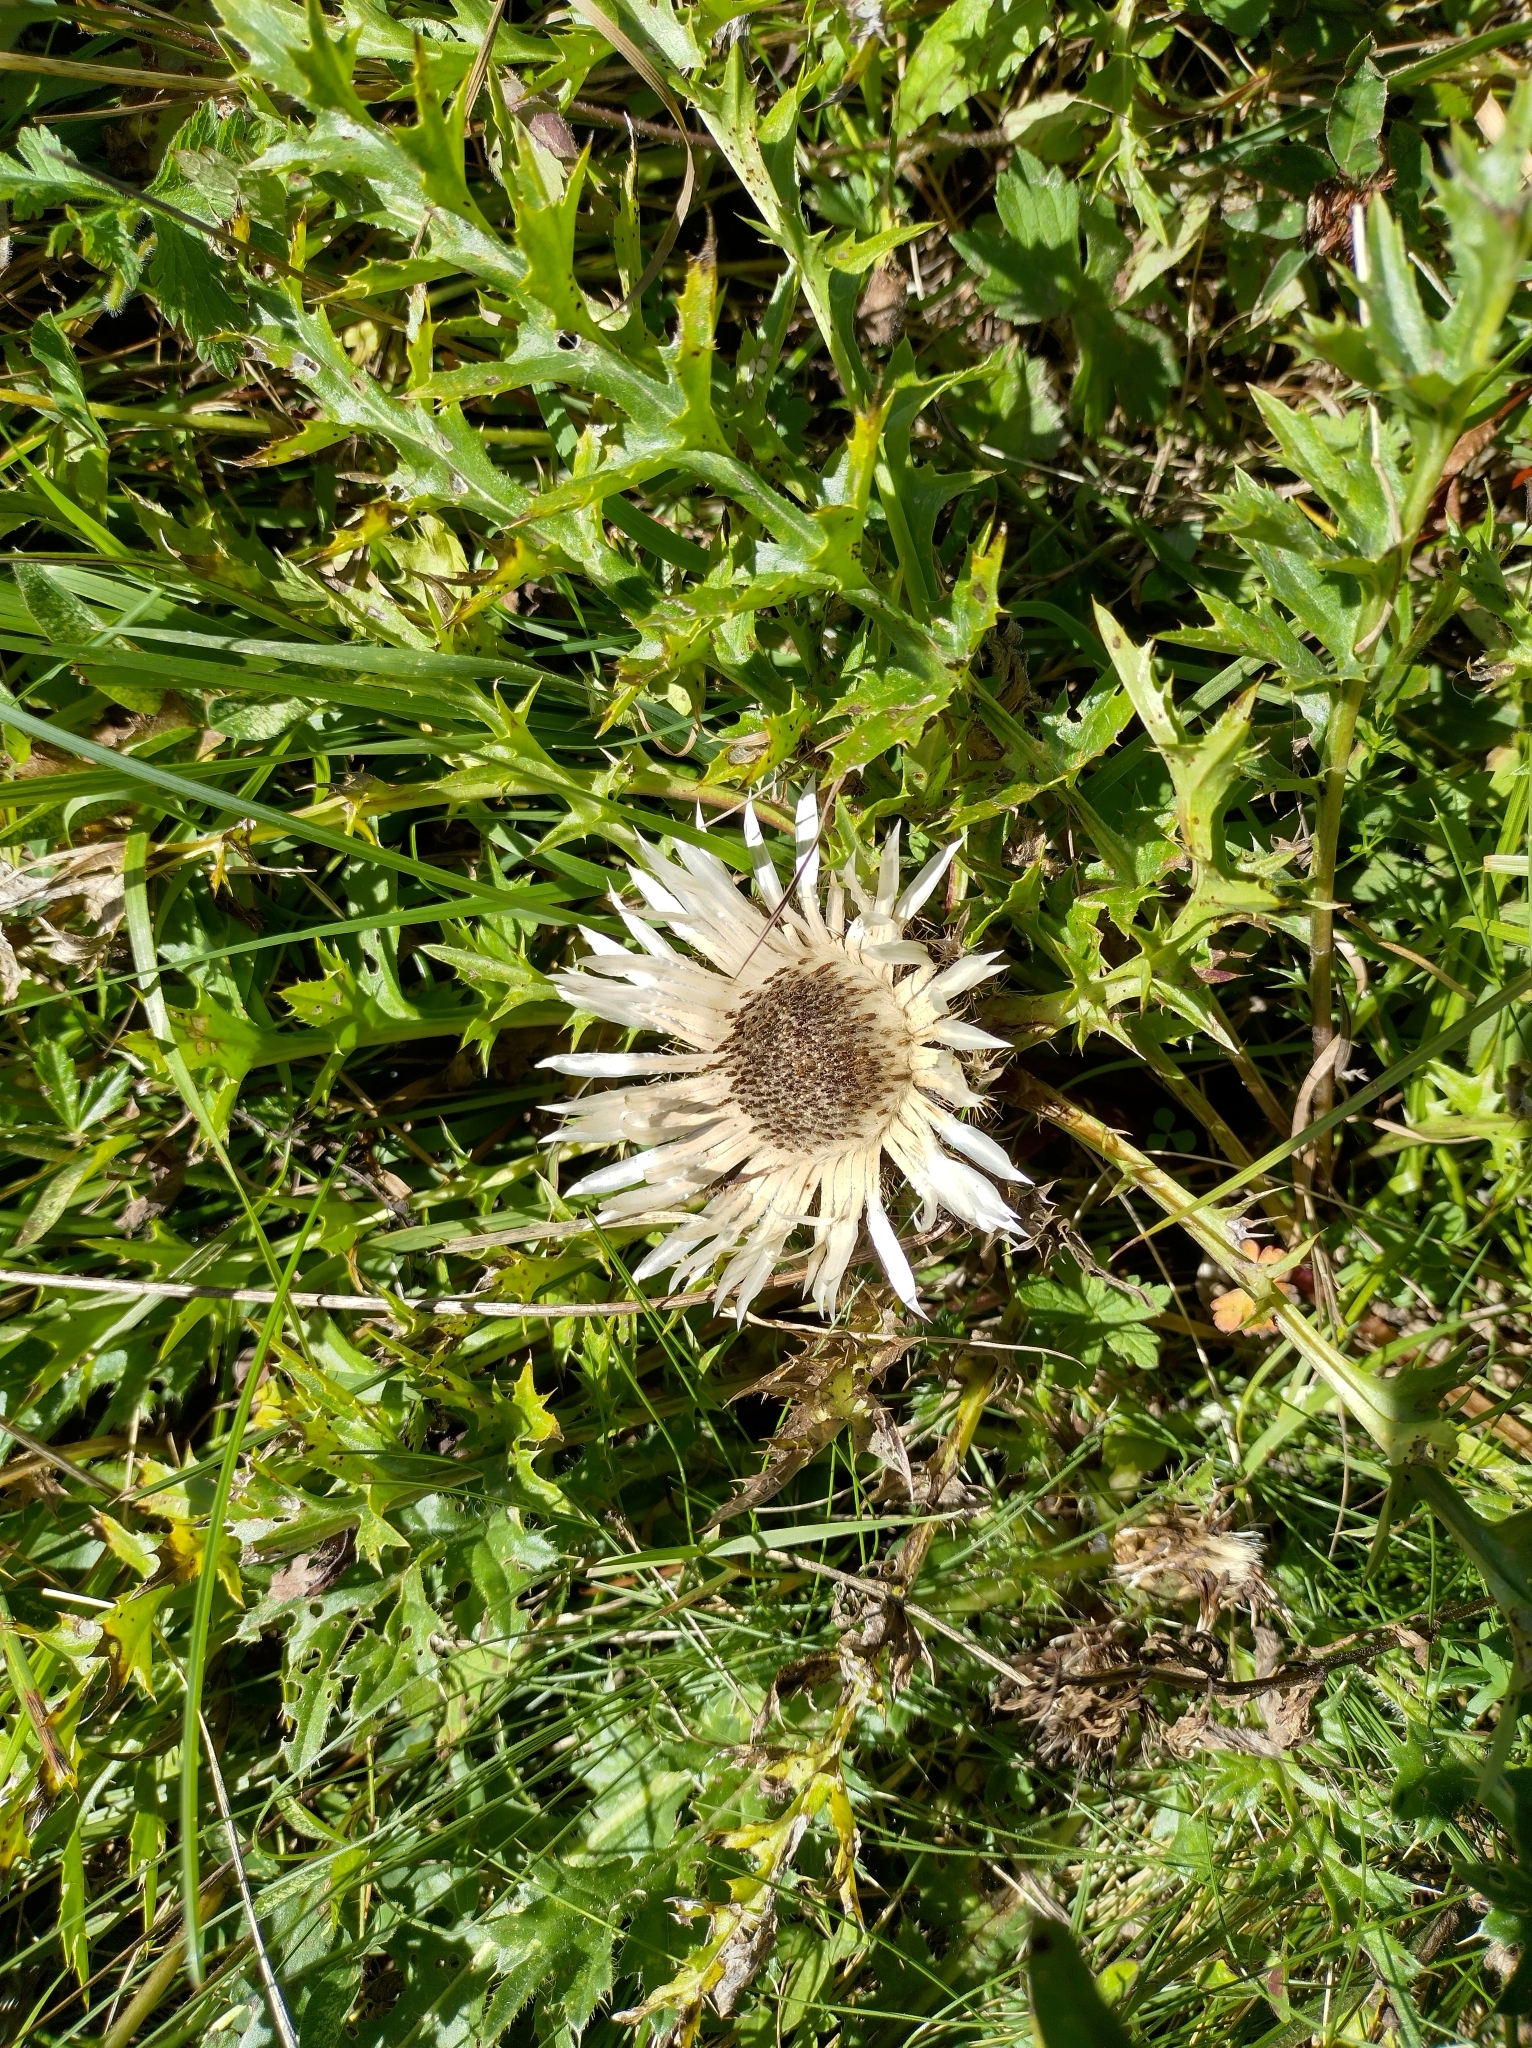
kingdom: Plantae
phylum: Tracheophyta
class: Magnoliopsida
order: Asterales
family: Asteraceae
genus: Carlina
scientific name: Carlina acaulis
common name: Stemless carline thistle
